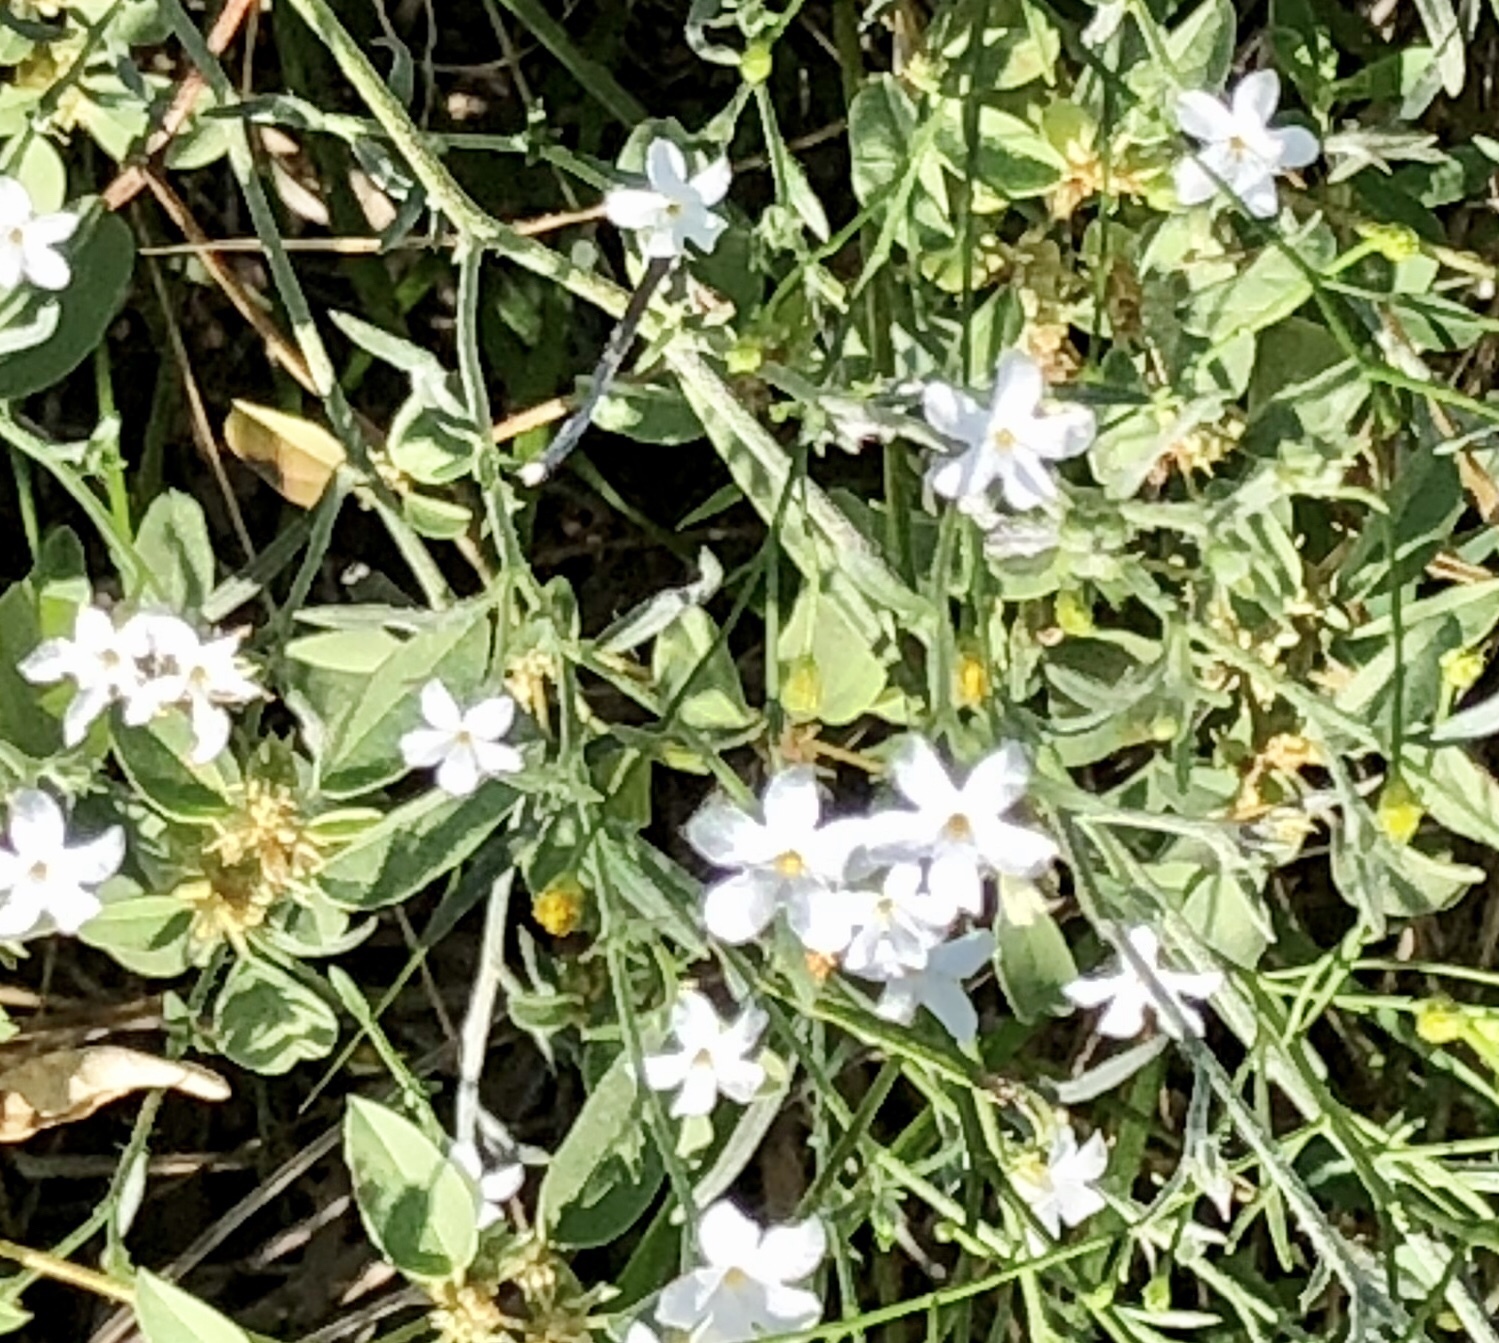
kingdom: Plantae
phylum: Tracheophyta
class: Magnoliopsida
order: Boraginales
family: Heliotropiaceae
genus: Euploca
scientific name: Euploca tenella
